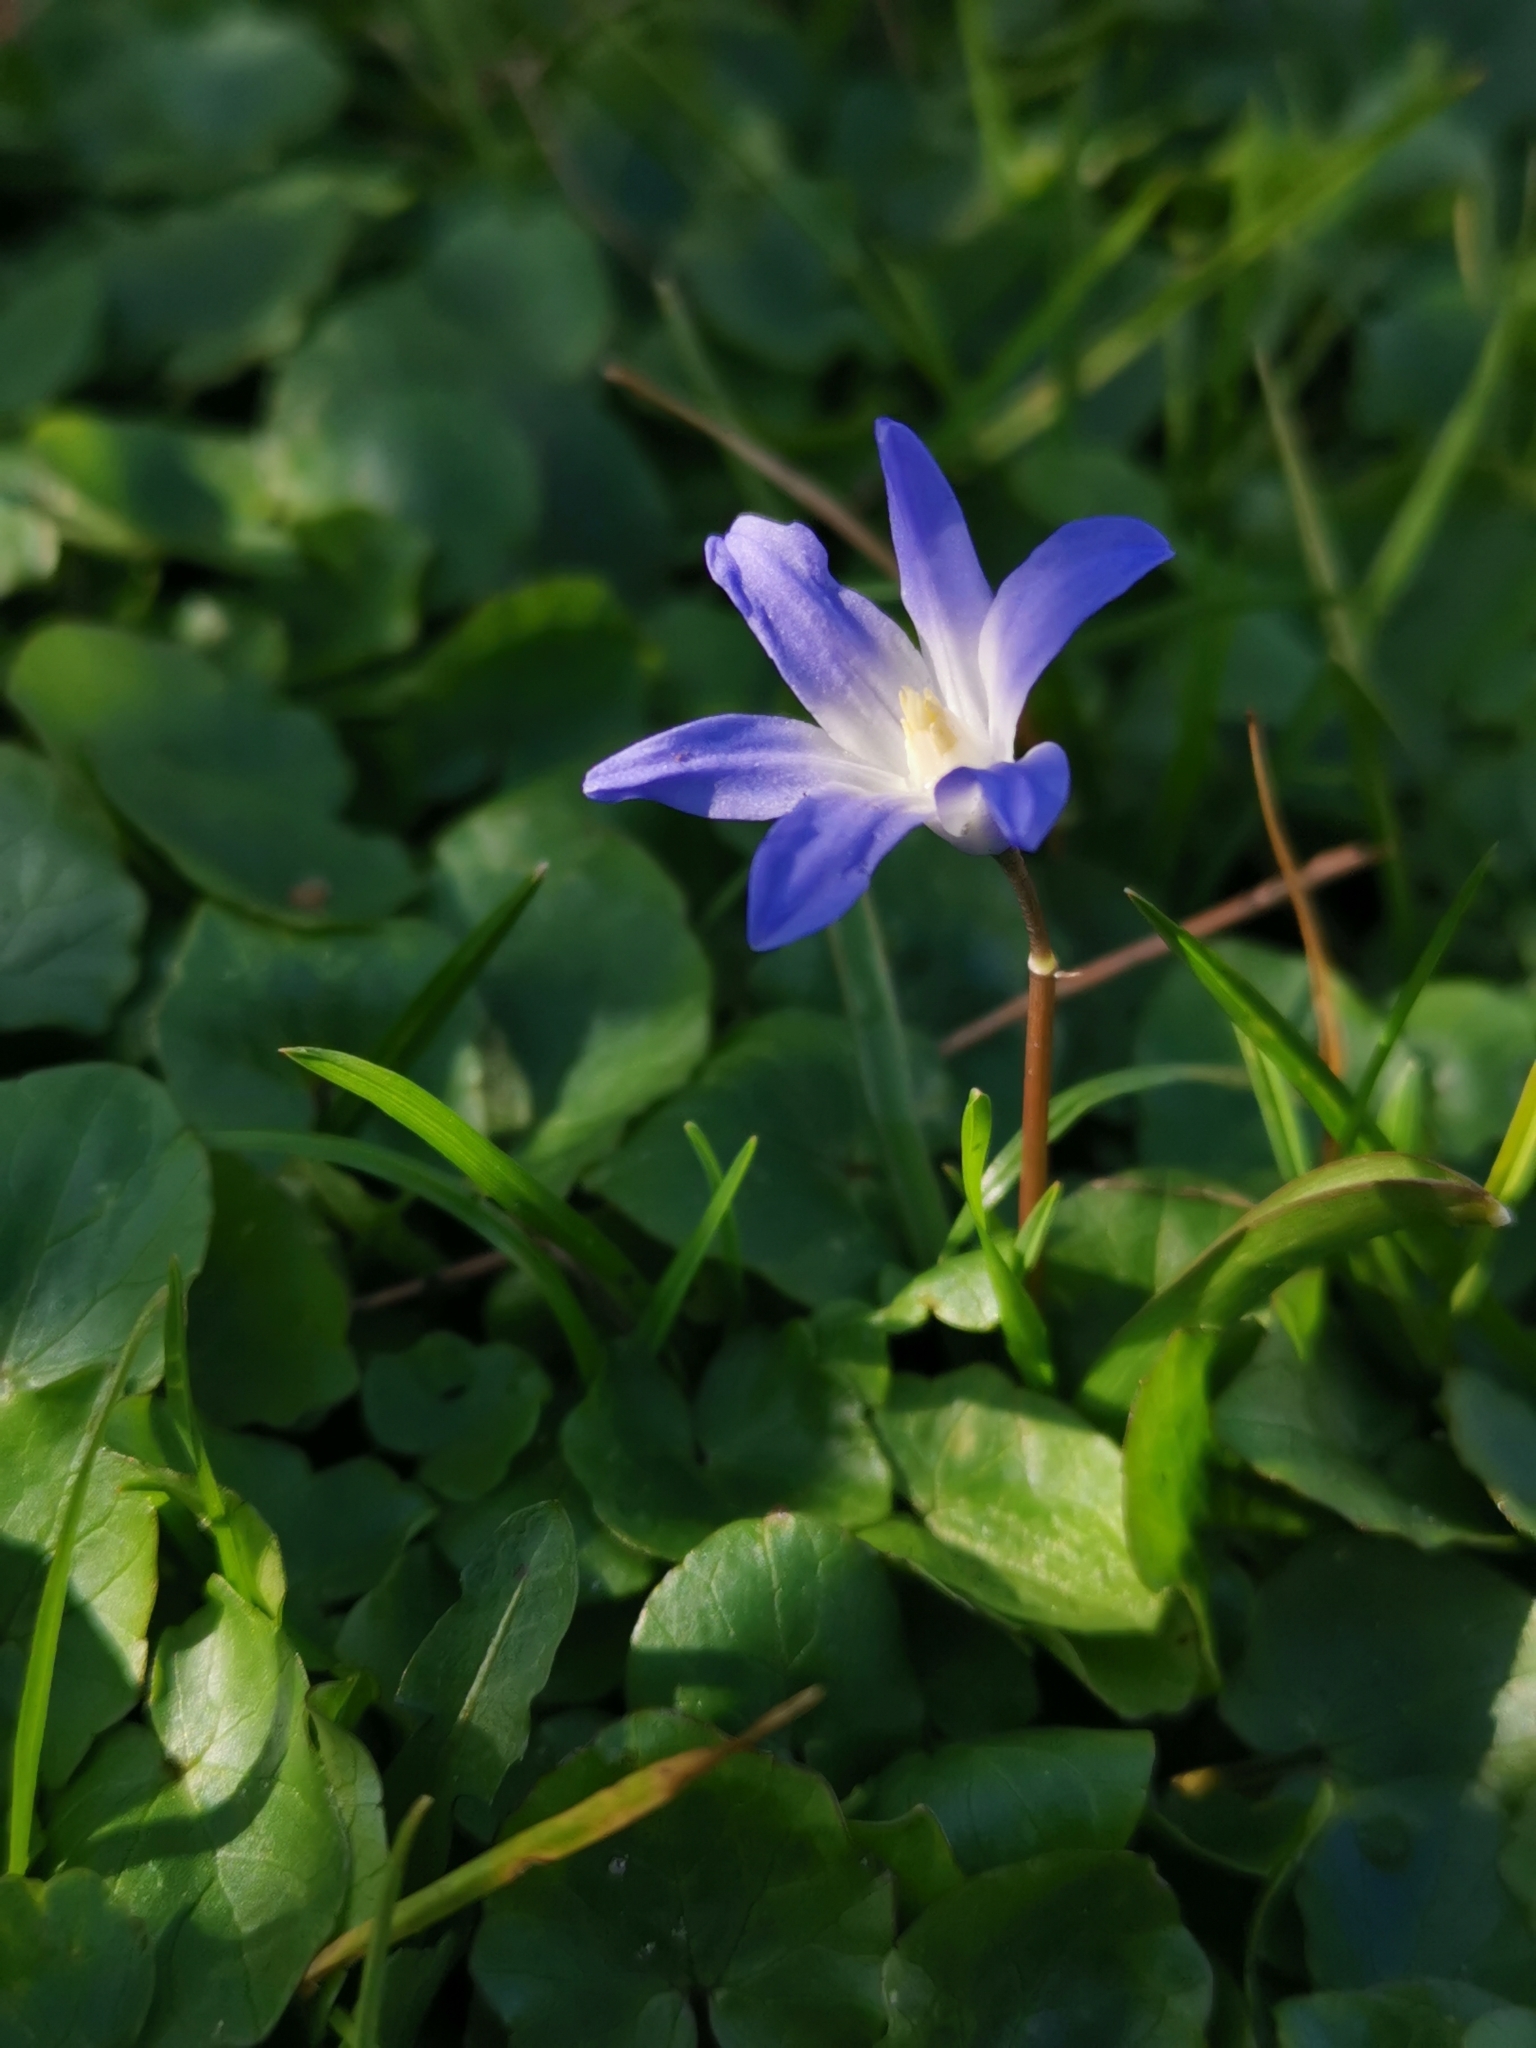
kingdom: Plantae
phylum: Tracheophyta
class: Liliopsida
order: Asparagales
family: Asparagaceae
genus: Scilla
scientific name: Scilla luciliae
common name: Boissier's glory-of-the-snow
